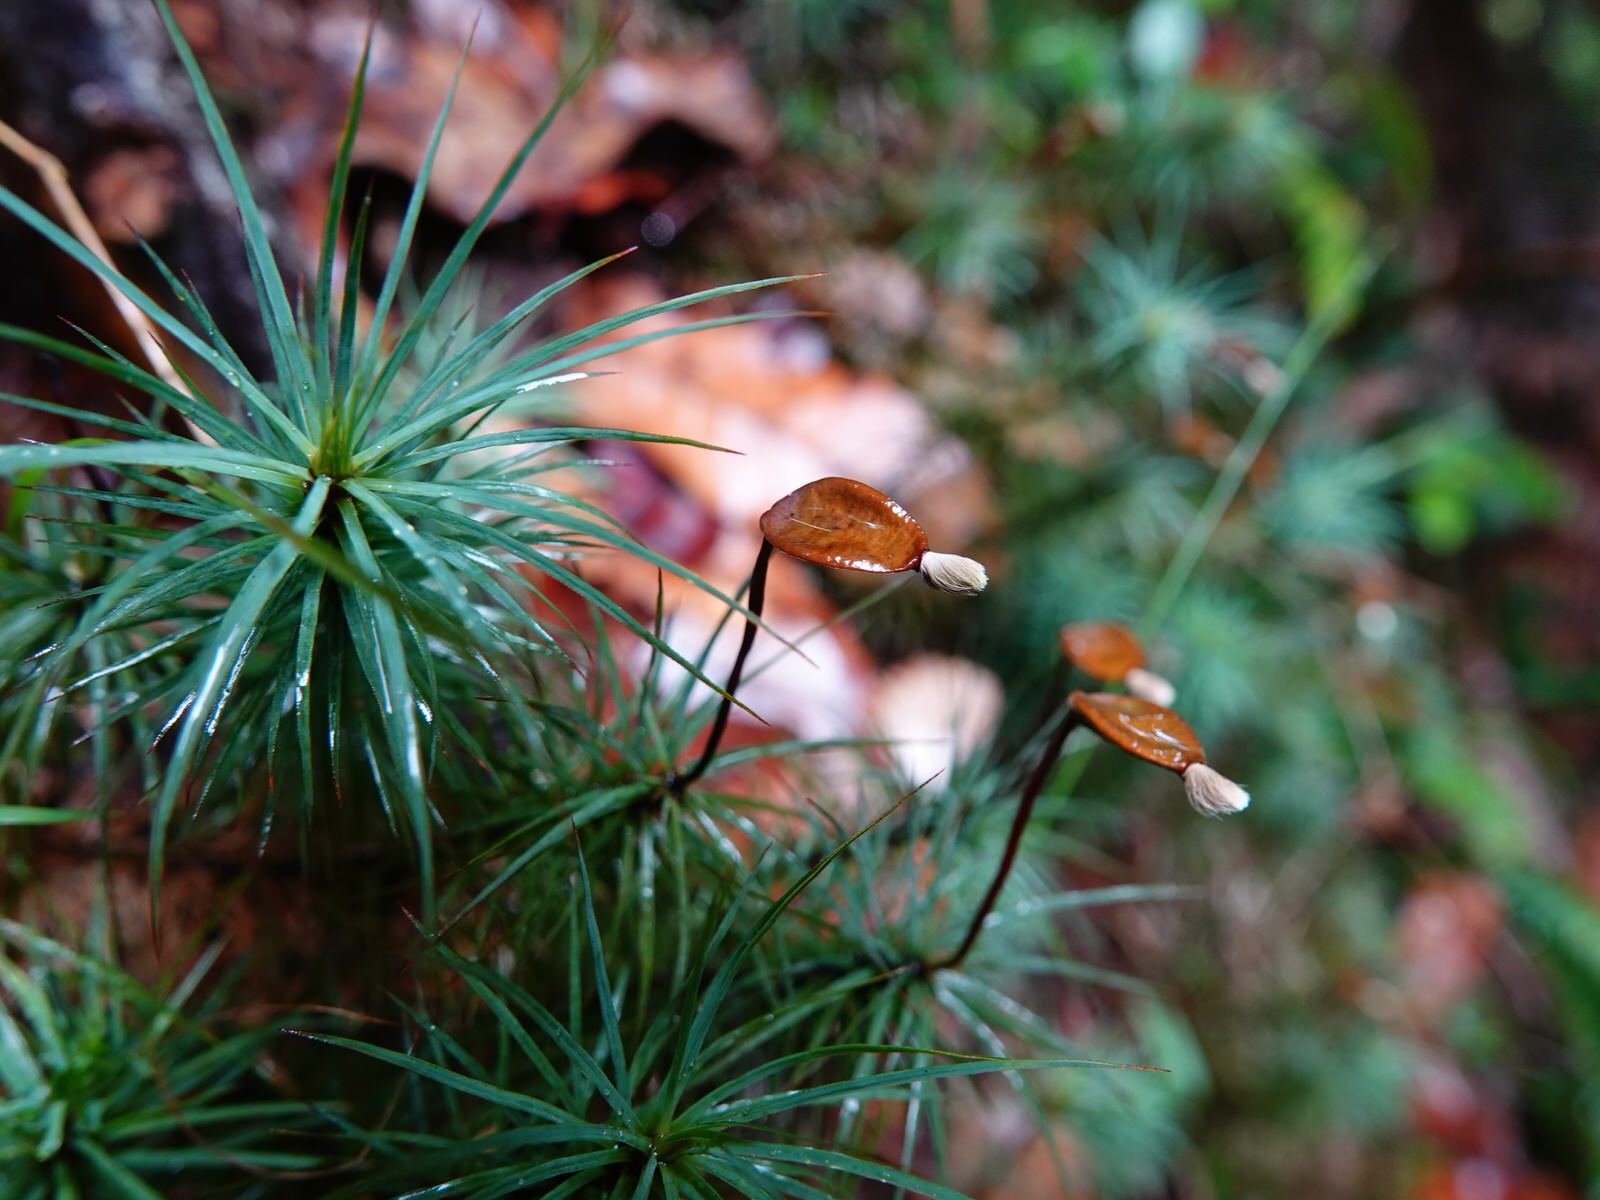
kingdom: Plantae
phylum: Bryophyta
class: Polytrichopsida
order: Polytrichales
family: Polytrichaceae
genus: Dawsonia
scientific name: Dawsonia superba
